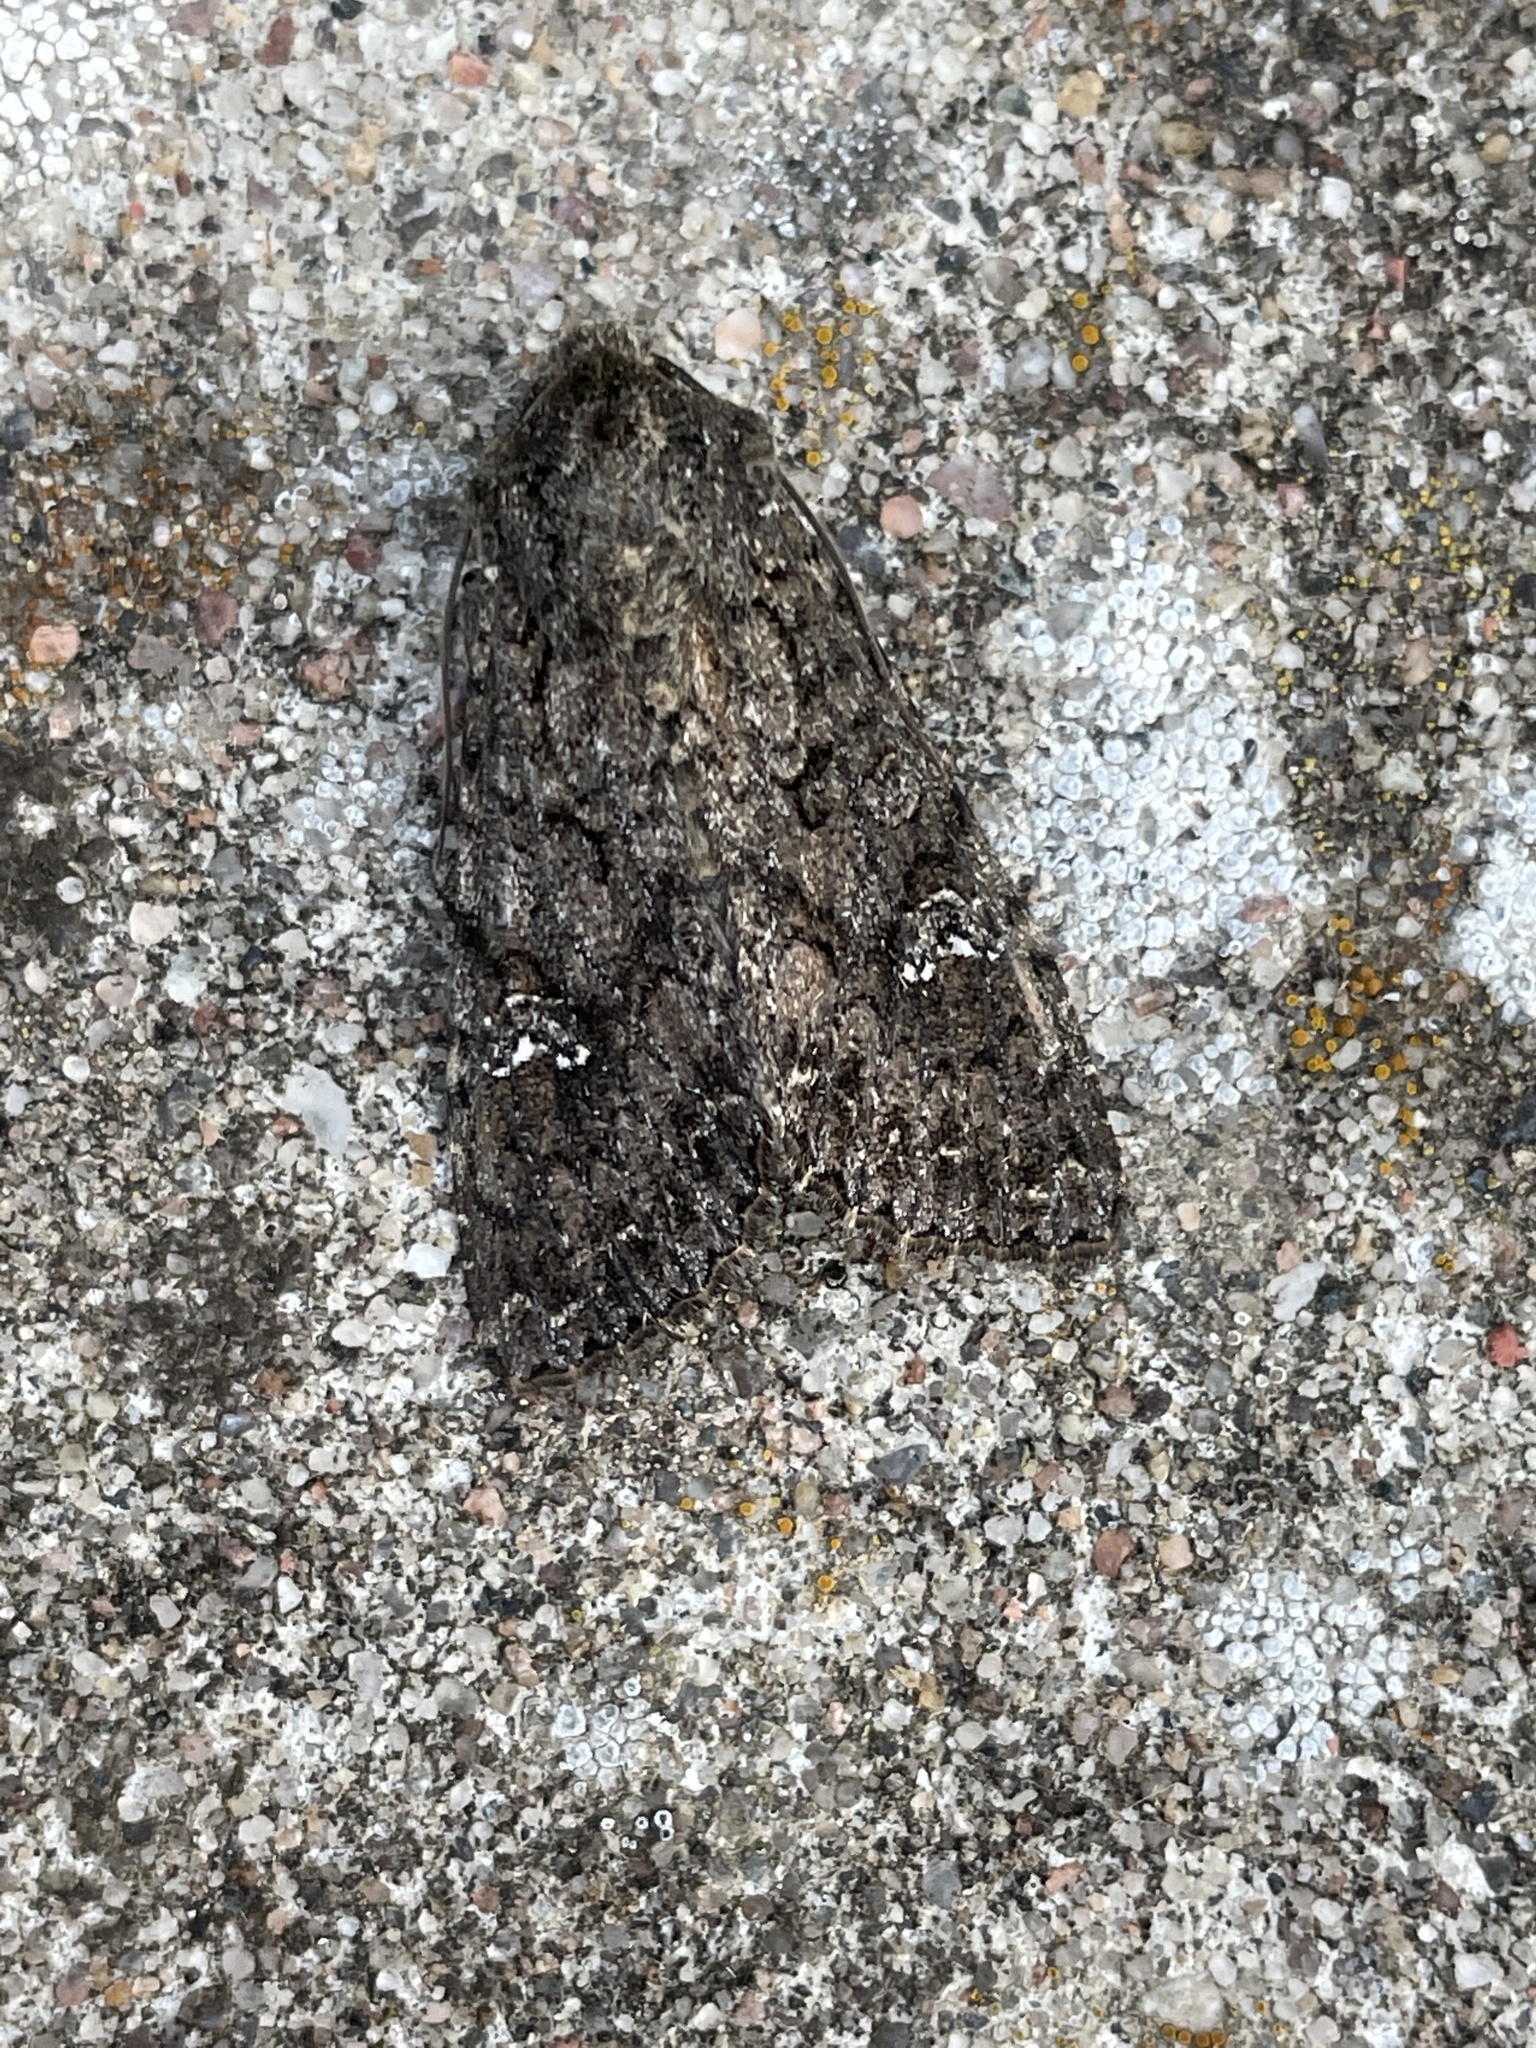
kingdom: Animalia
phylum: Arthropoda
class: Insecta
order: Lepidoptera
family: Noctuidae
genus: Mamestra
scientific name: Mamestra brassicae
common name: Cabbage moth
